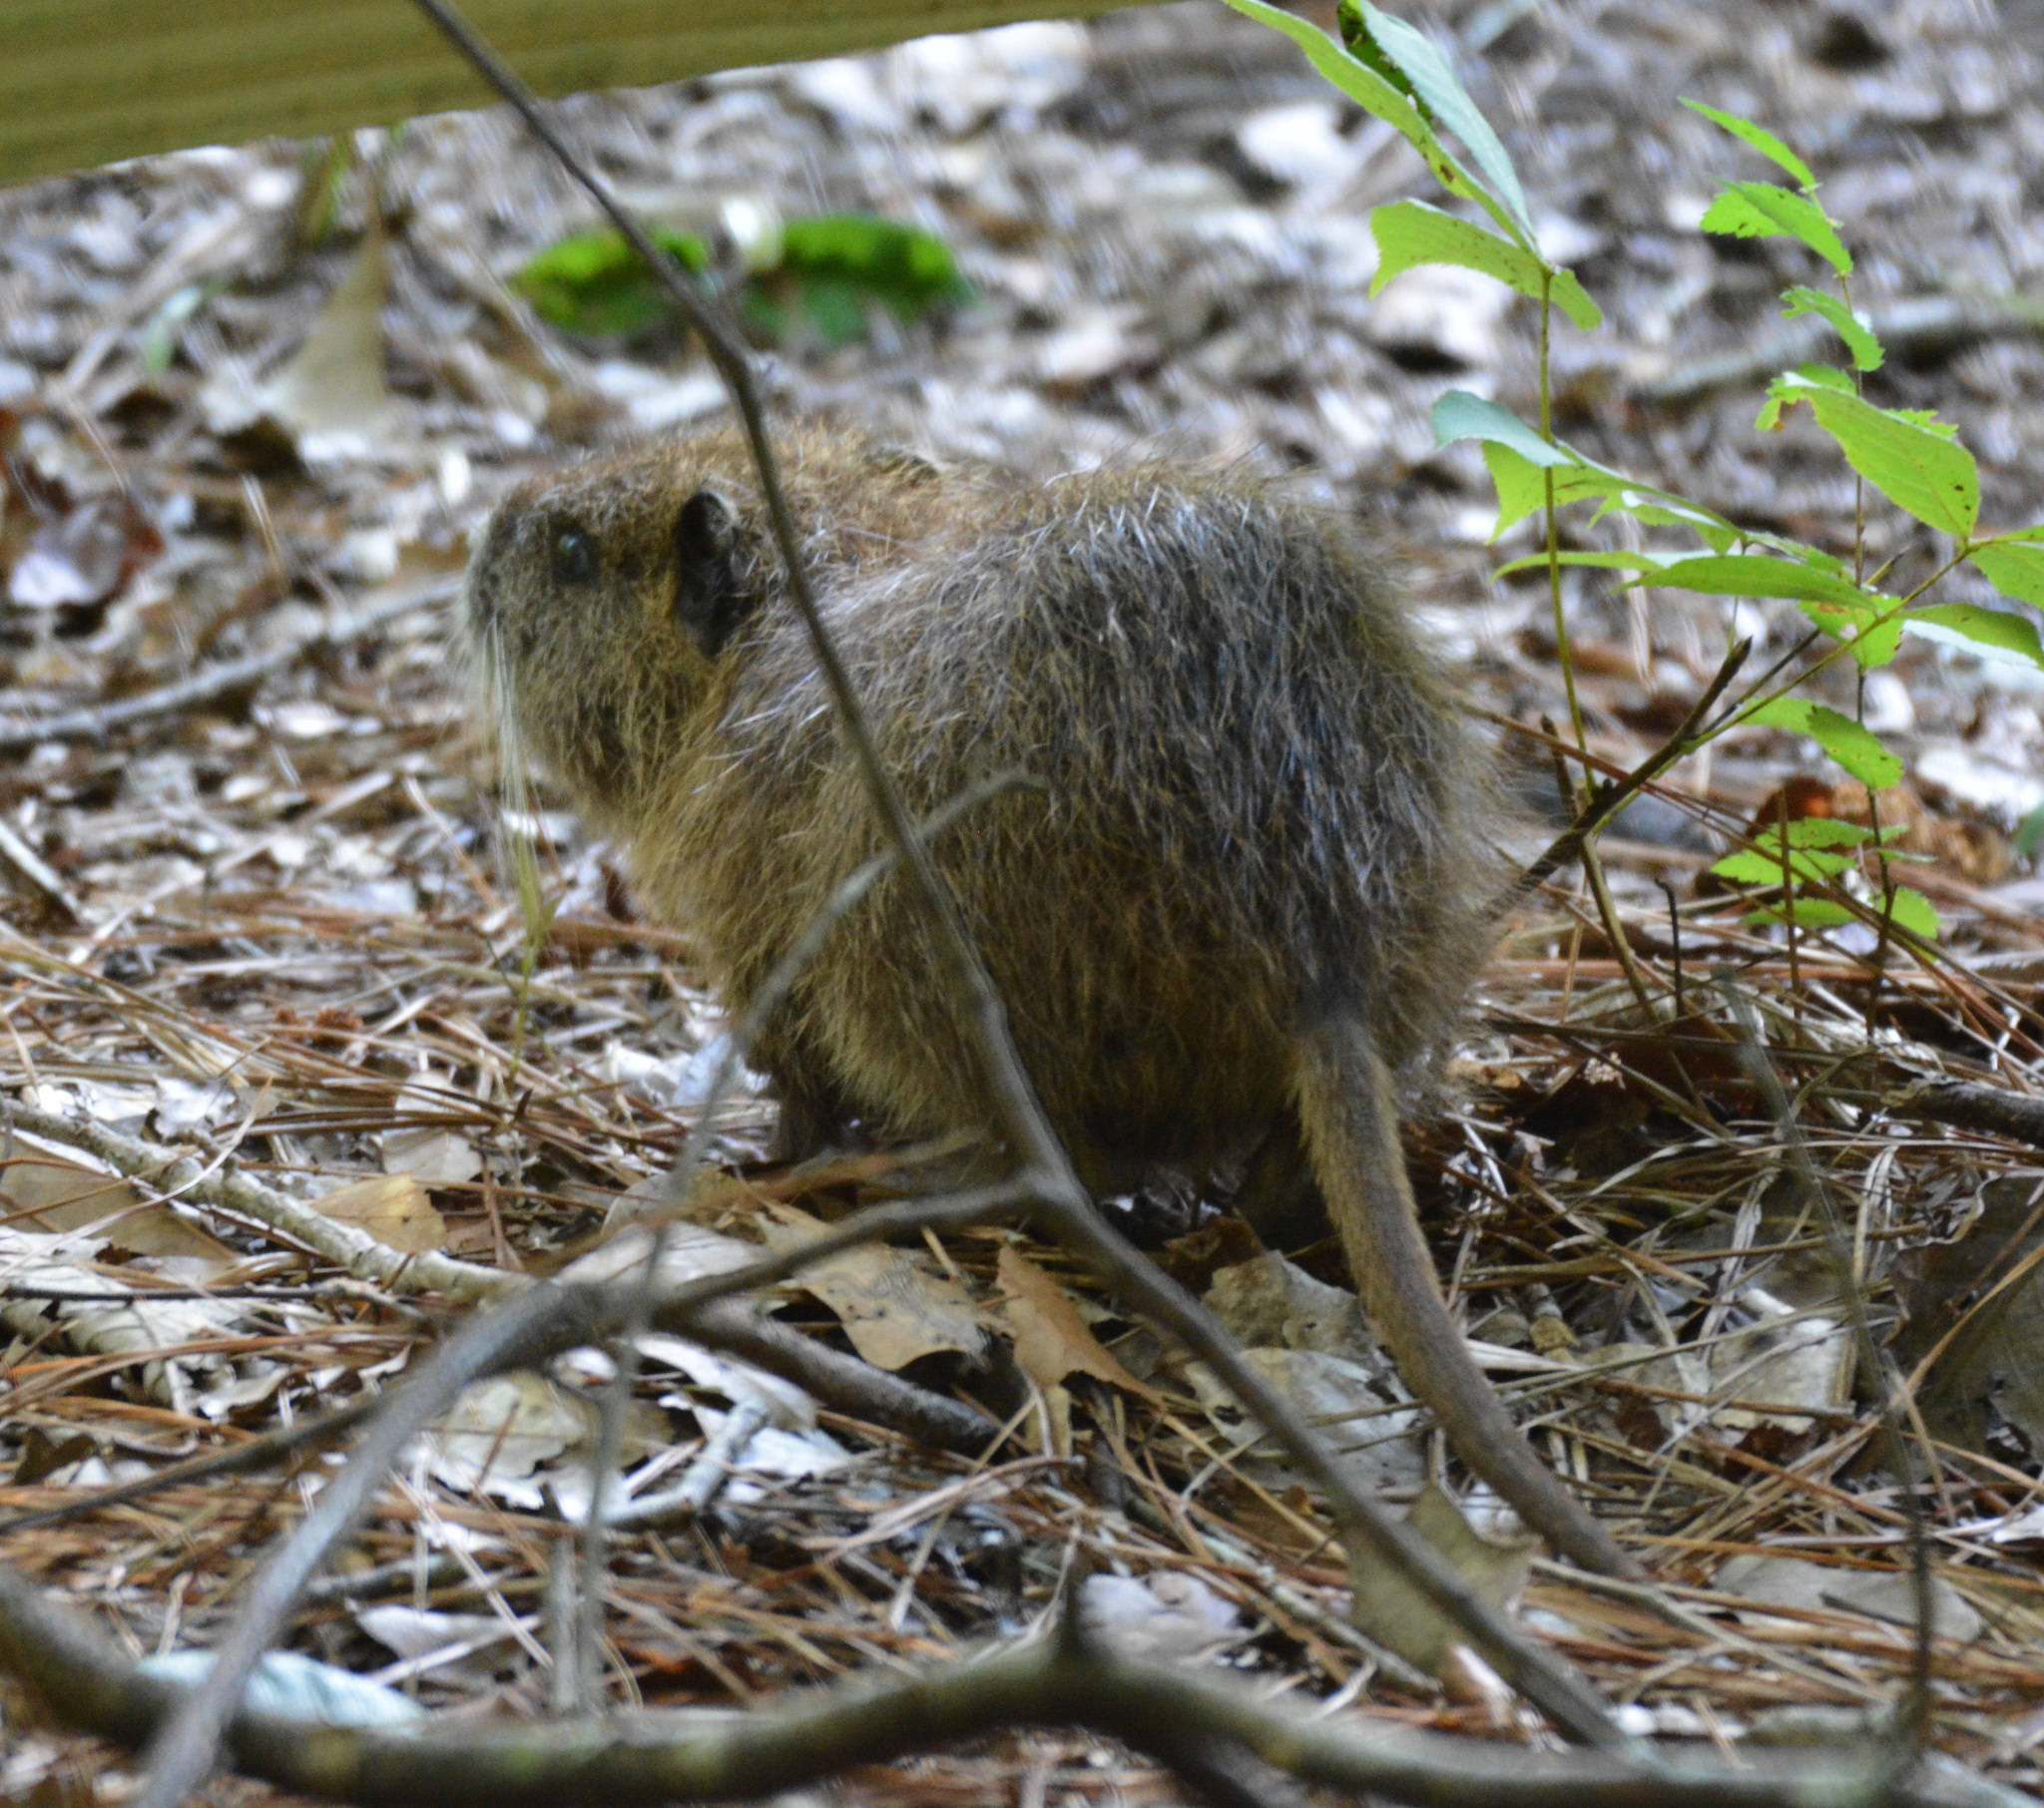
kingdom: Animalia
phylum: Chordata
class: Mammalia
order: Rodentia
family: Myocastoridae
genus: Myocastor
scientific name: Myocastor coypus
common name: Coypu
